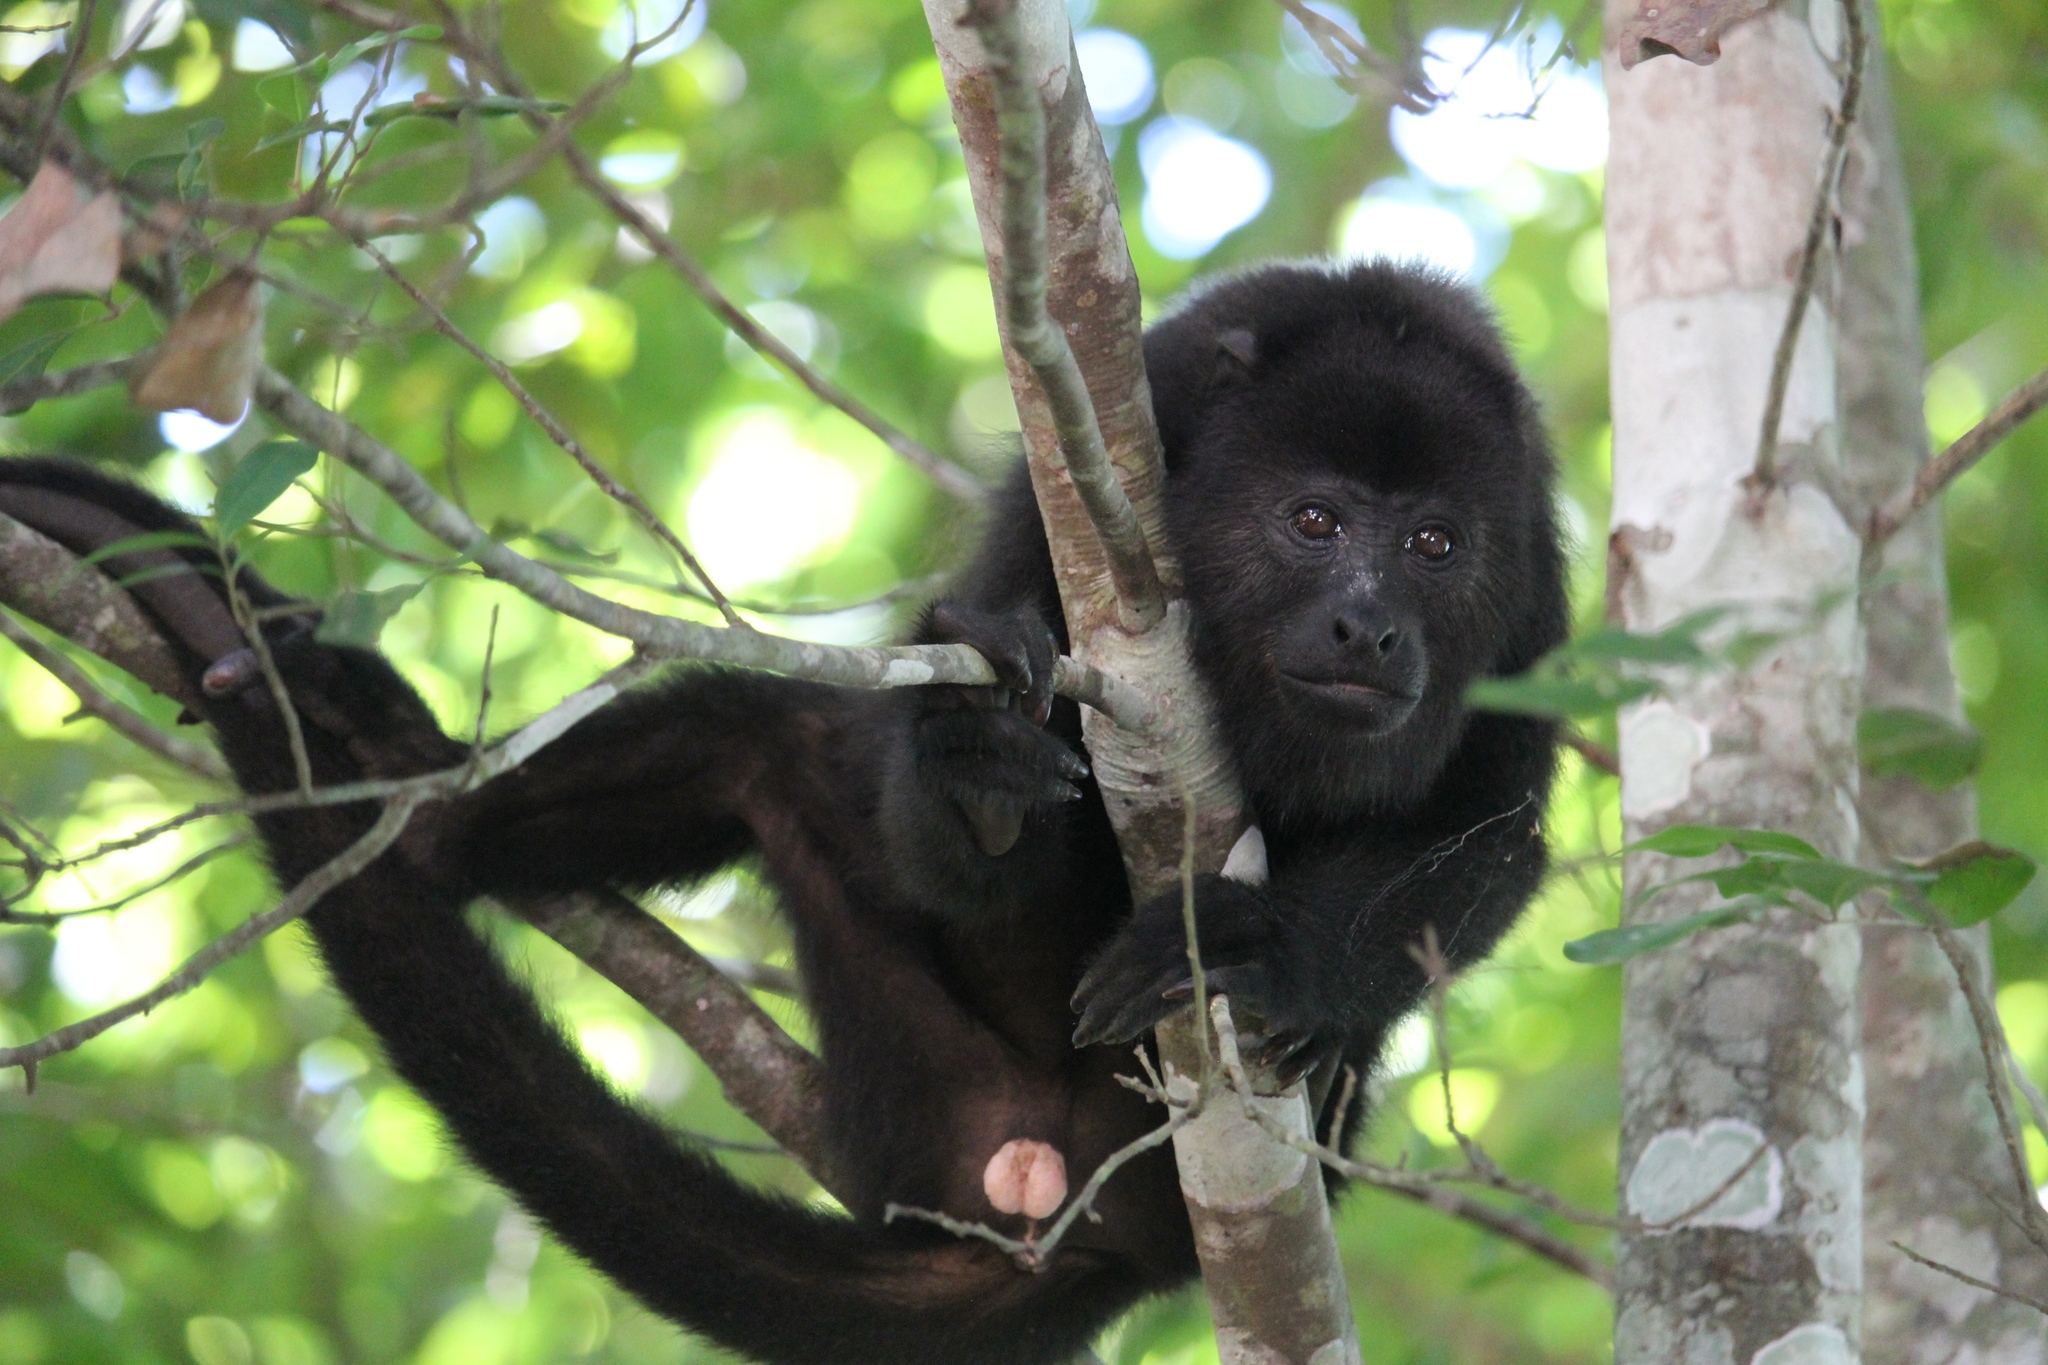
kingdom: Animalia
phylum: Chordata
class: Mammalia
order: Primates
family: Atelidae
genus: Alouatta
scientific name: Alouatta pigra
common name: Guatemalan black howler
